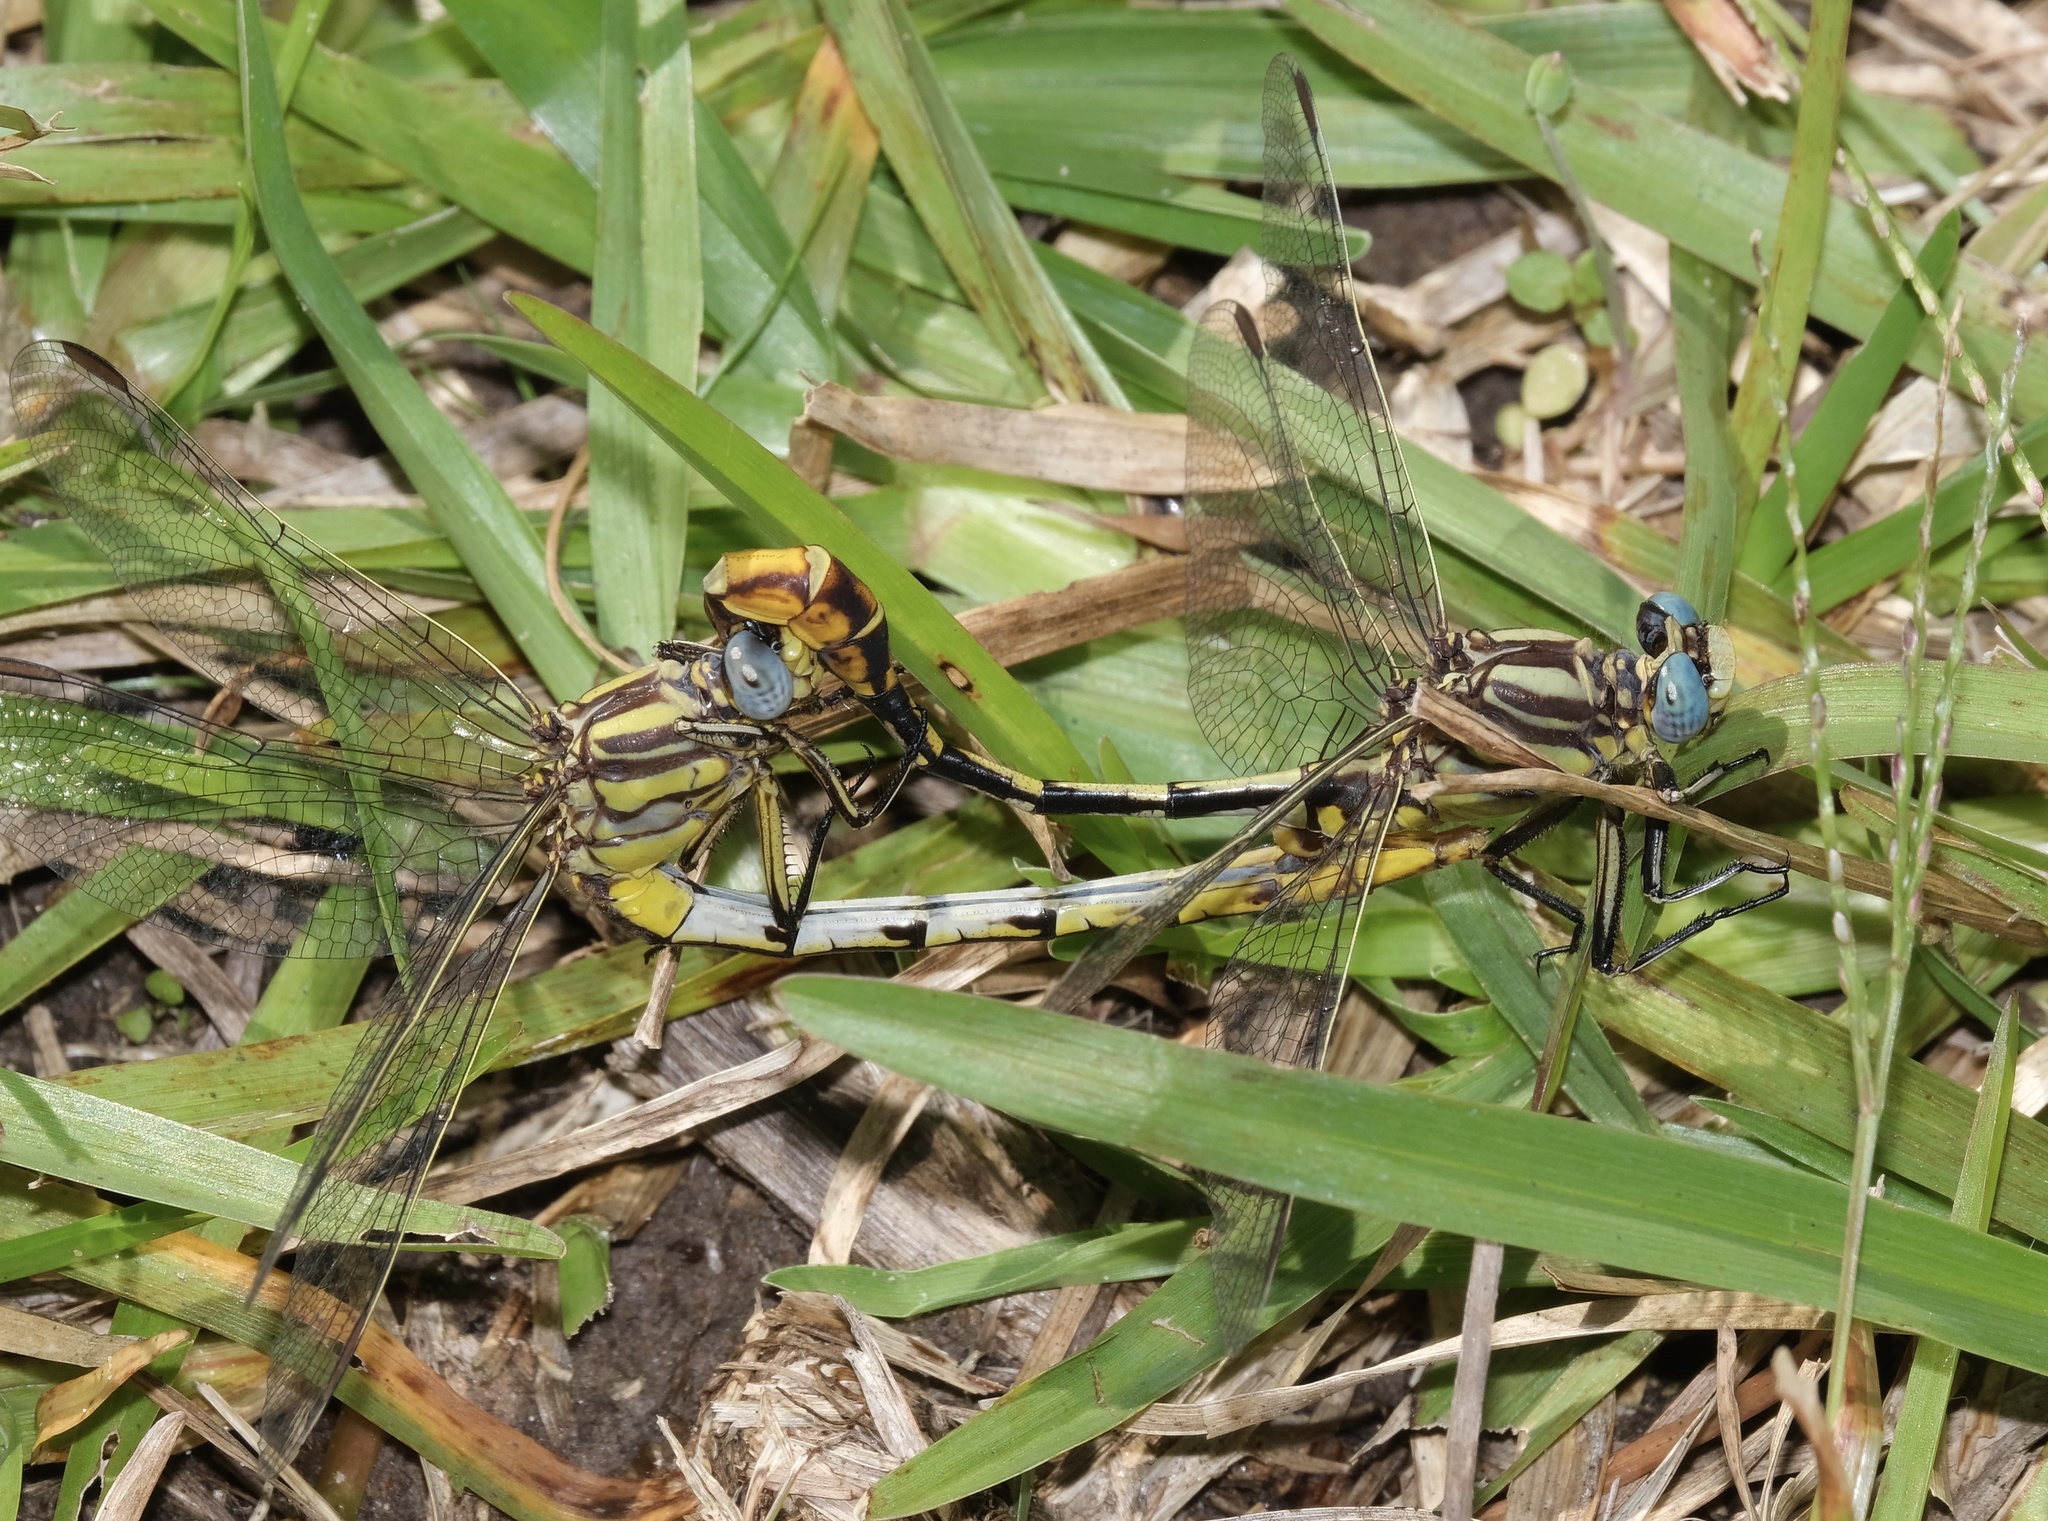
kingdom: Animalia
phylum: Arthropoda
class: Insecta
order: Odonata
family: Gomphidae
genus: Phanogomphus
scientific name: Phanogomphus militaris
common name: Sulphur-tipped clubtail
